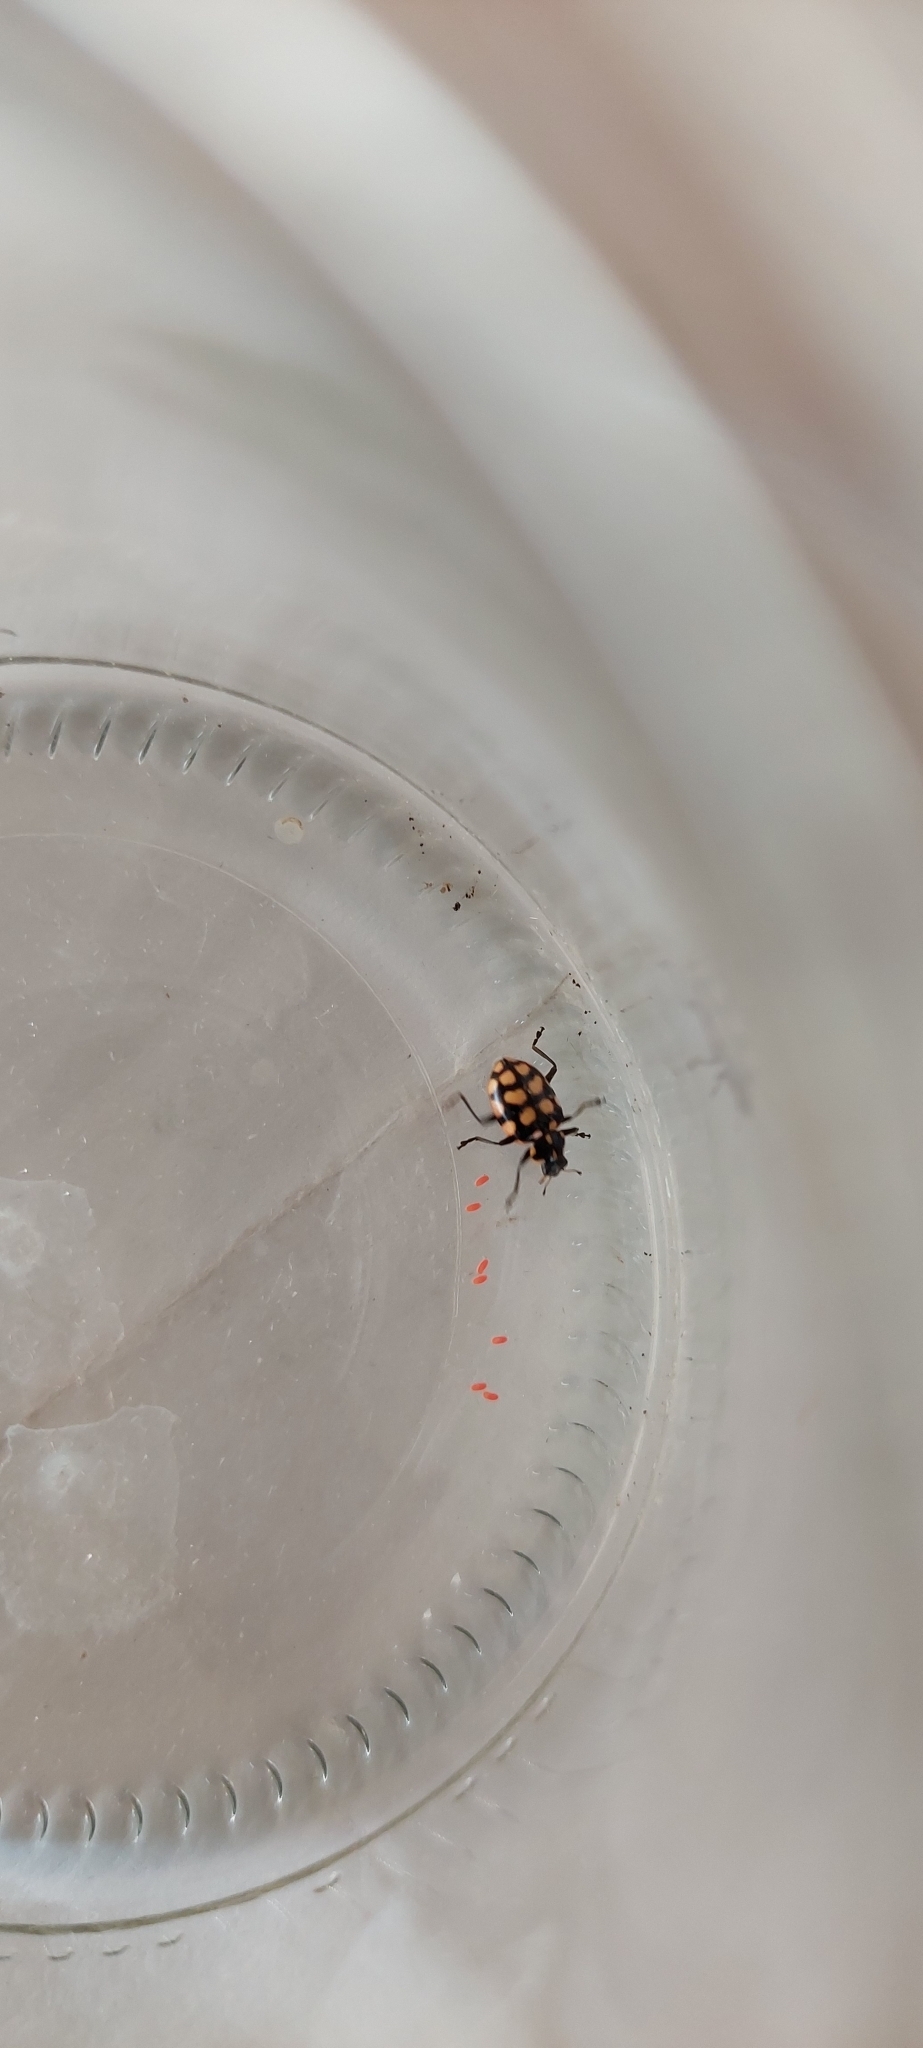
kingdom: Animalia
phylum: Arthropoda
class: Insecta
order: Coleoptera
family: Coccinellidae
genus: Coleomegilla
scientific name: Coleomegilla
